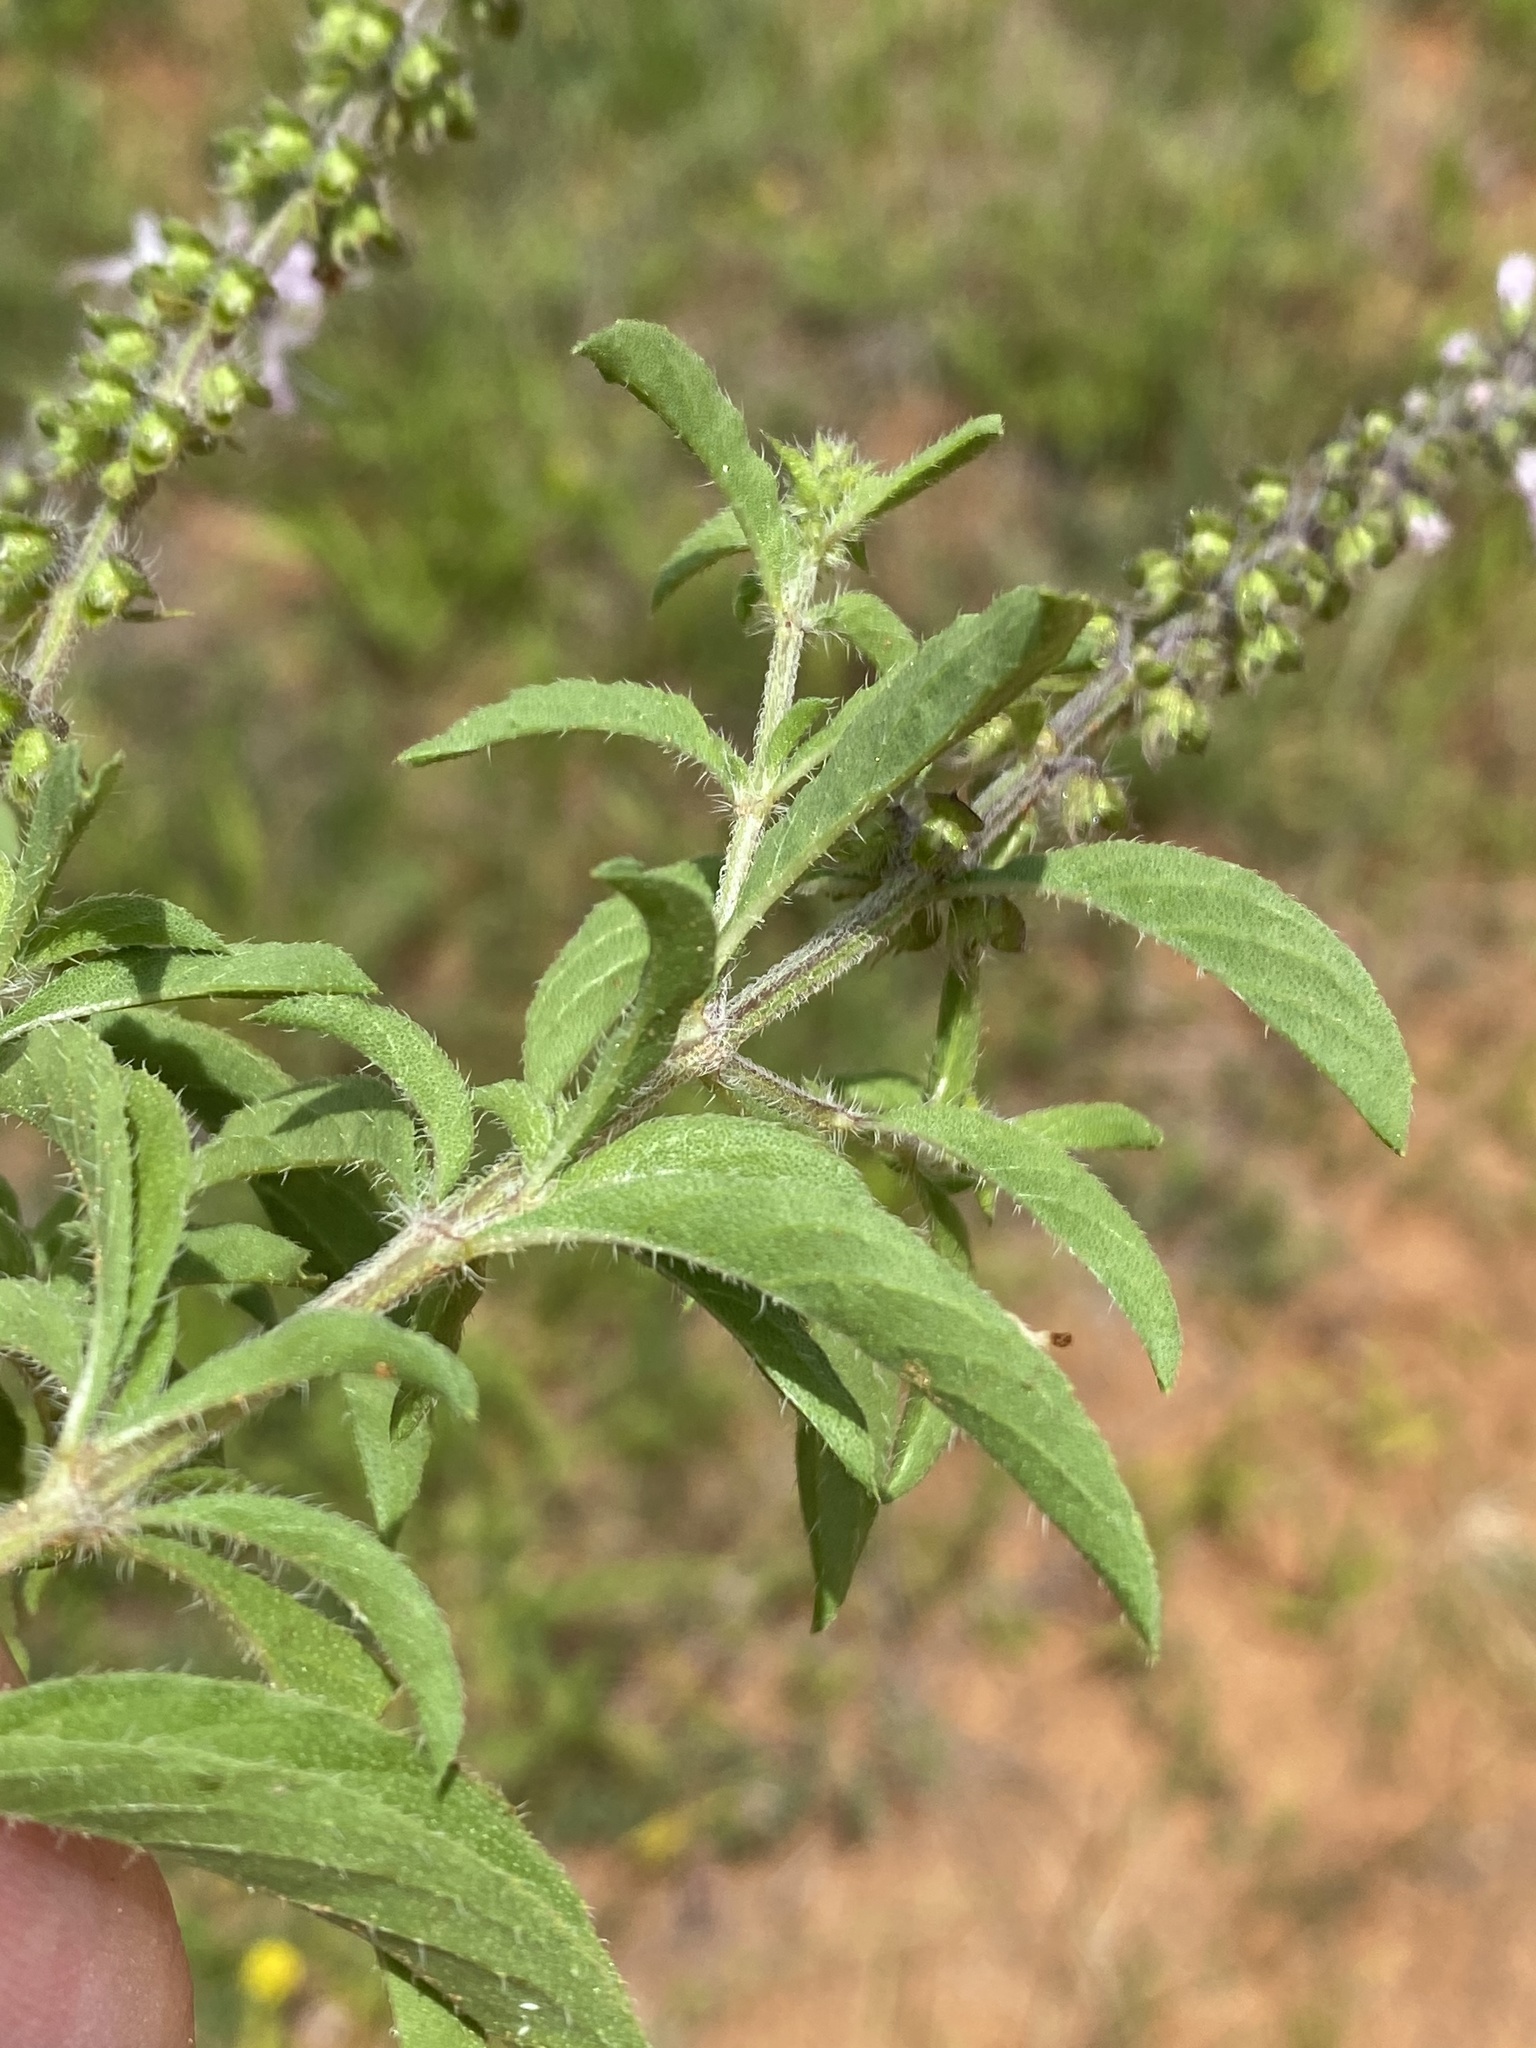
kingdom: Plantae
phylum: Tracheophyta
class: Magnoliopsida
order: Lamiales
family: Lamiaceae
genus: Ocimum
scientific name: Ocimum basilicum
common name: Sweet basil
